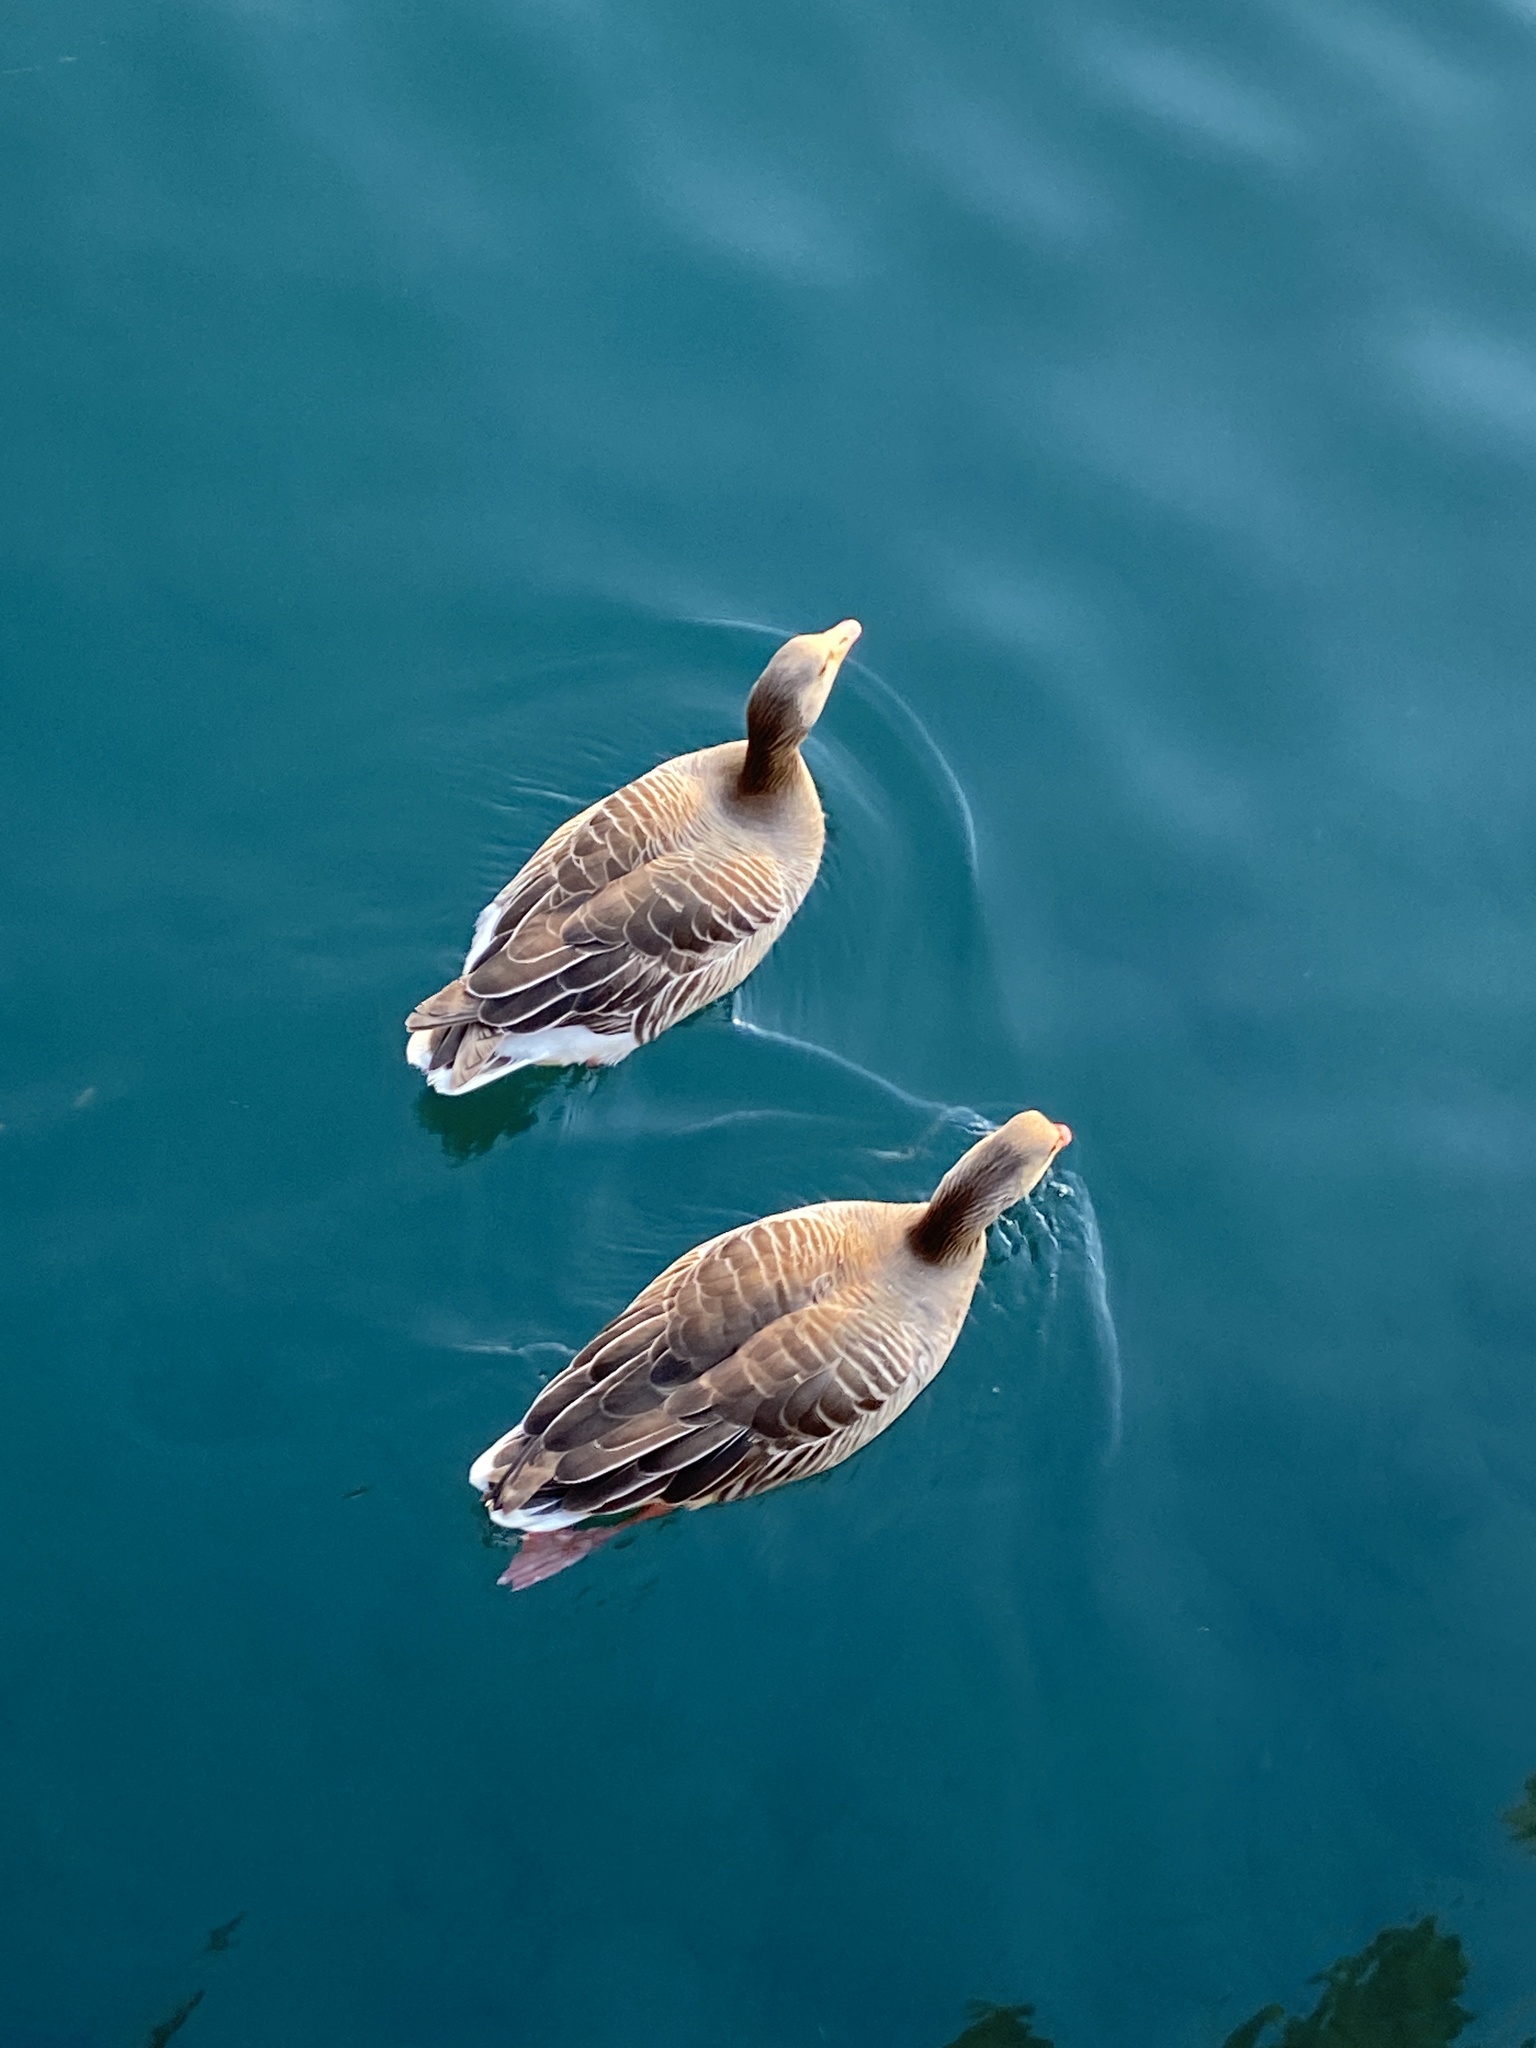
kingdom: Animalia
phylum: Chordata
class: Aves
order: Anseriformes
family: Anatidae
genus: Anser
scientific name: Anser anser
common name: Greylag goose
